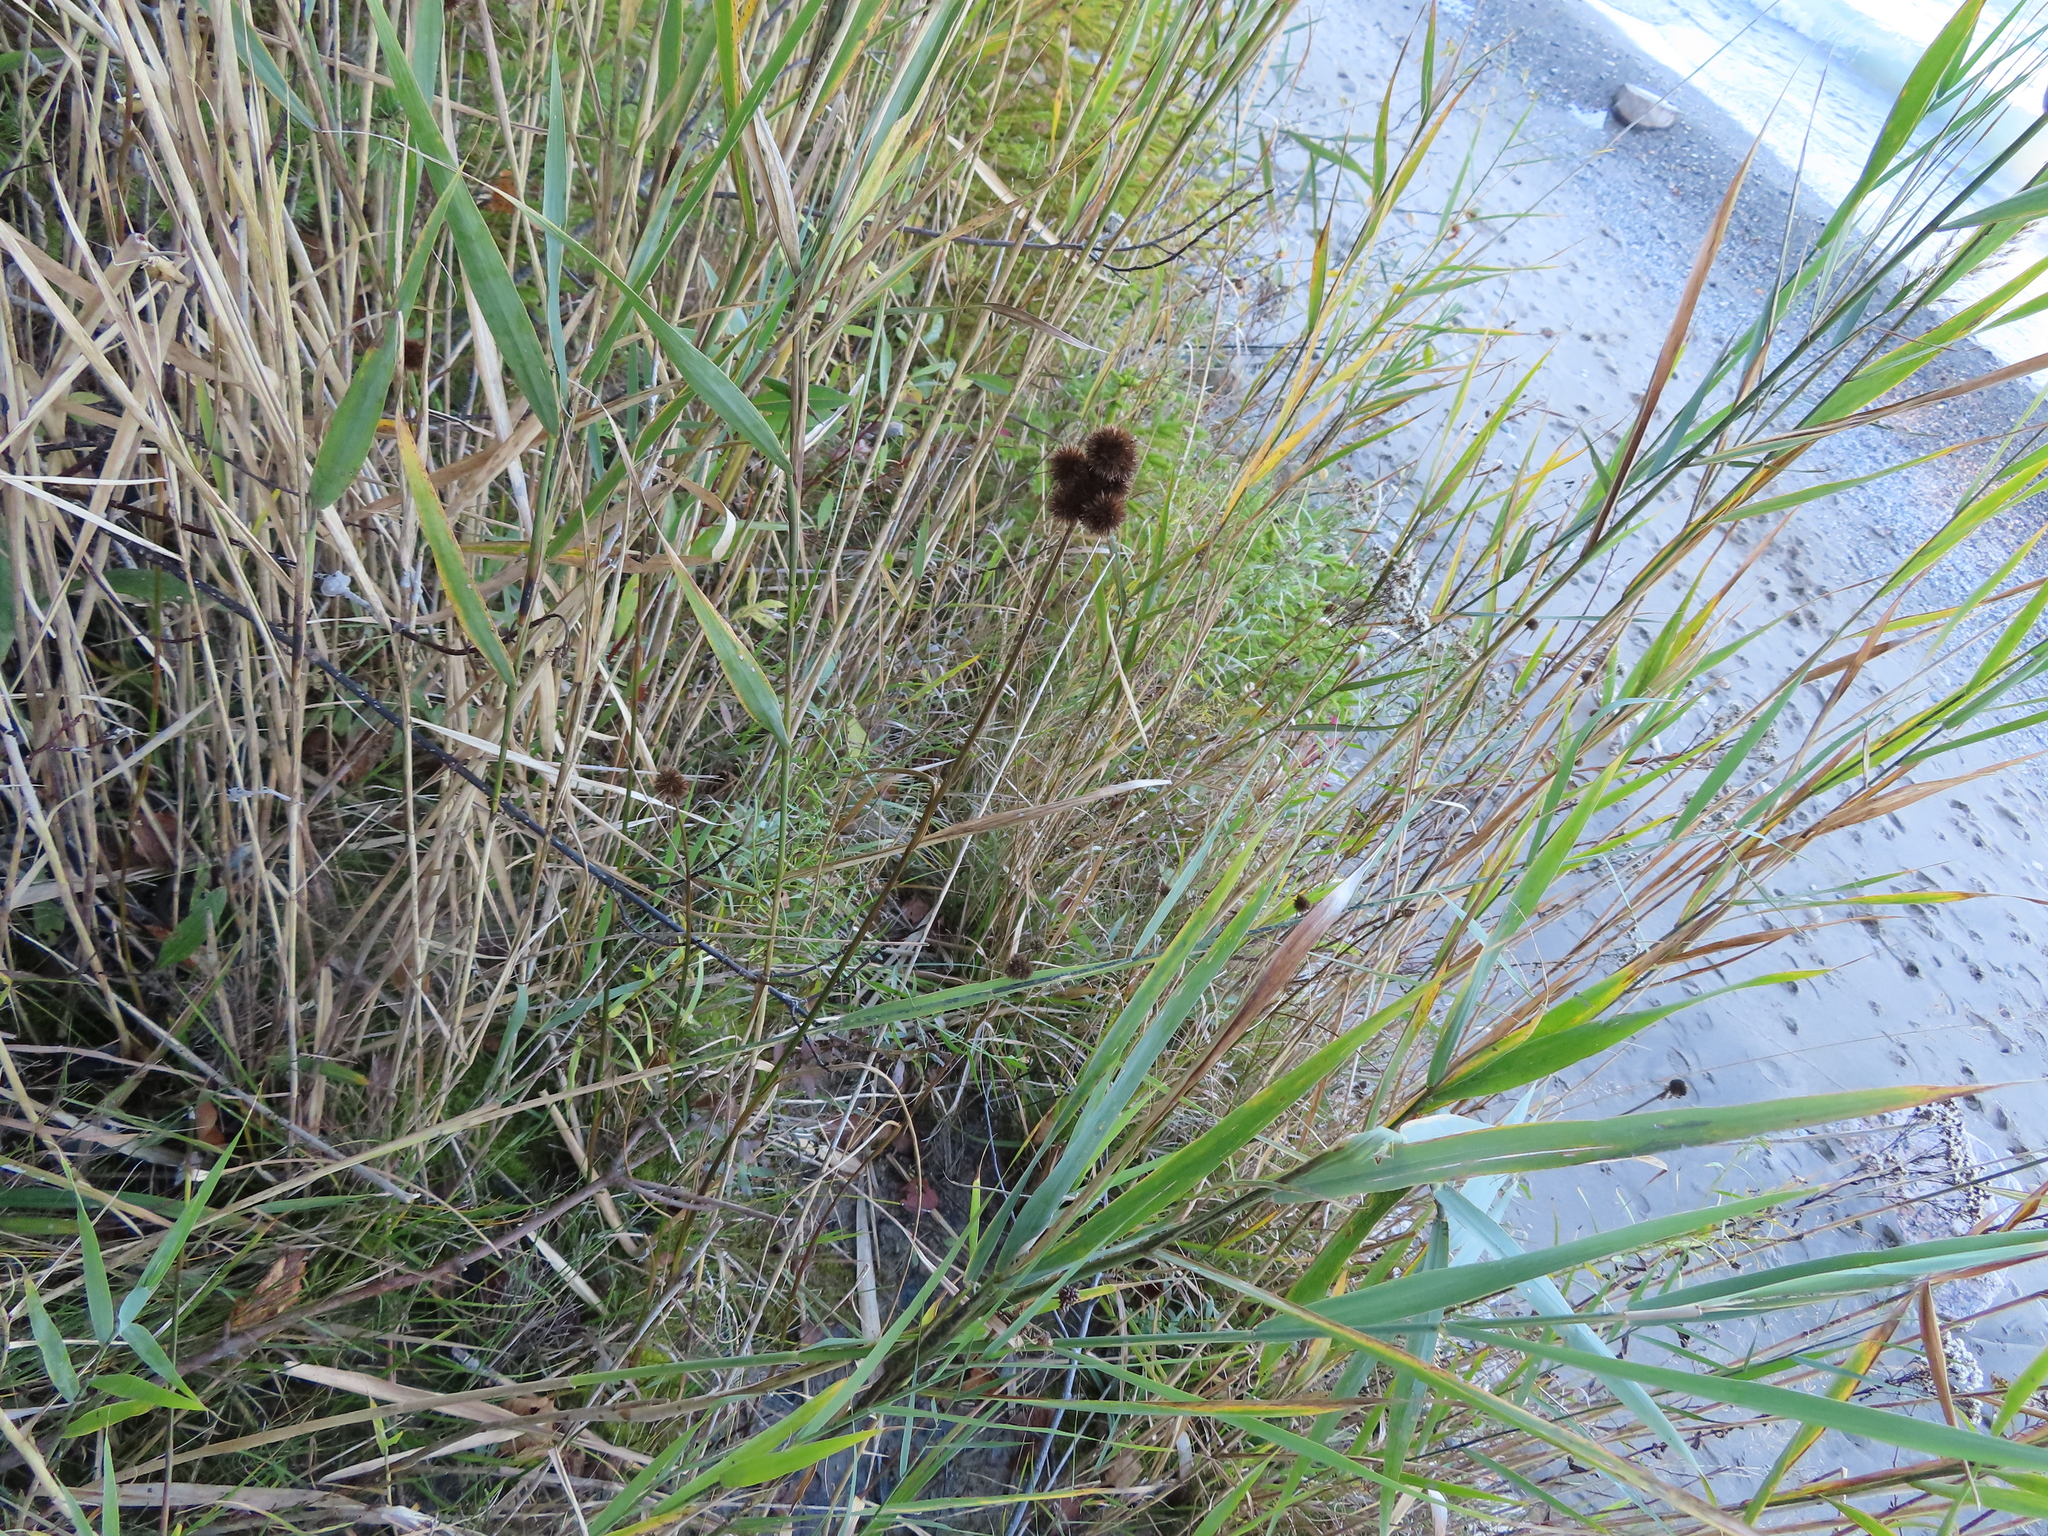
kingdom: Plantae
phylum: Tracheophyta
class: Liliopsida
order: Poales
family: Juncaceae
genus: Juncus
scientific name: Juncus torreyi
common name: Torrey's rush
